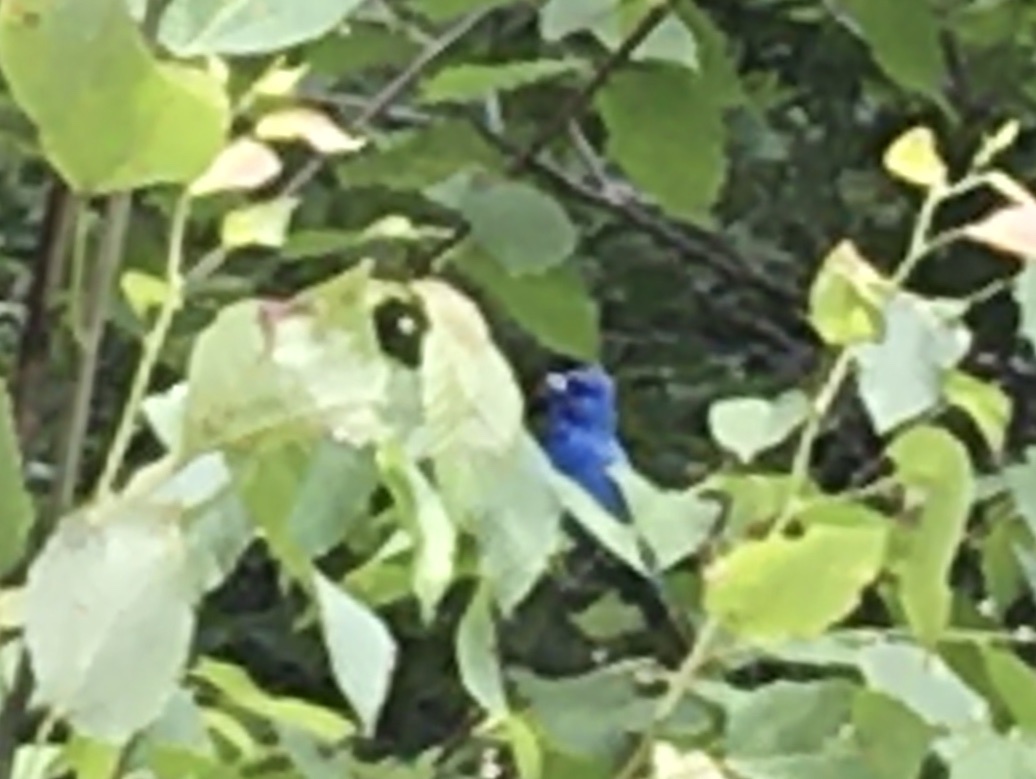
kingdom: Animalia
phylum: Chordata
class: Aves
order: Passeriformes
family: Cardinalidae
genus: Passerina
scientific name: Passerina cyanea
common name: Indigo bunting
